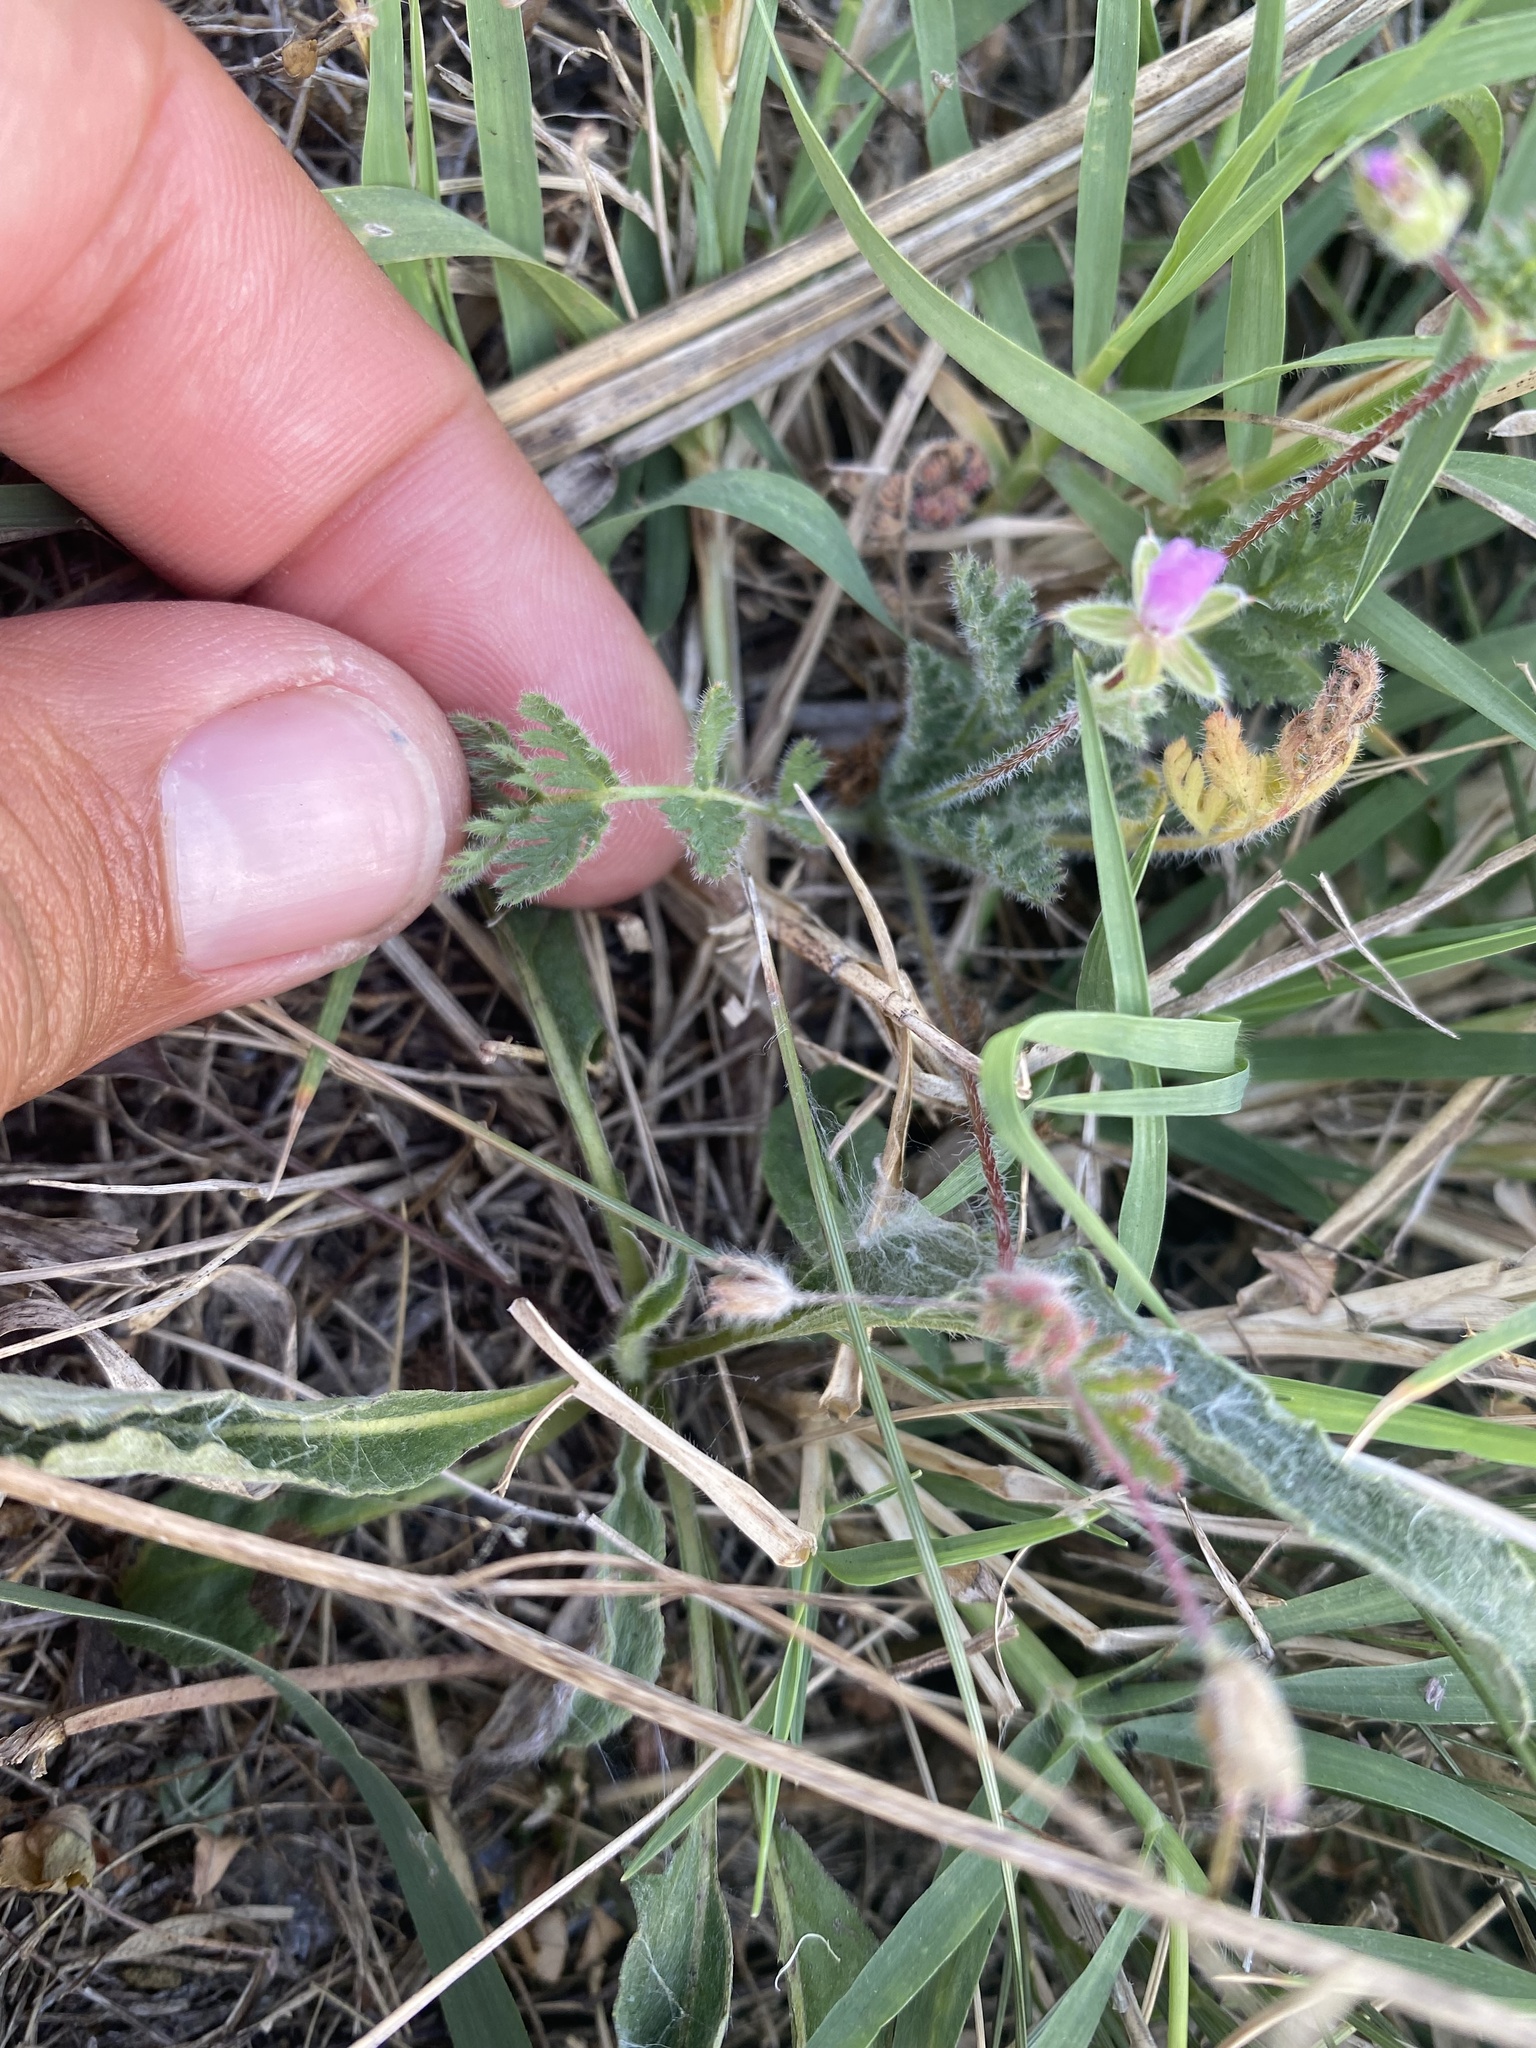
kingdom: Plantae
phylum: Tracheophyta
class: Magnoliopsida
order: Geraniales
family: Geraniaceae
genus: Erodium
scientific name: Erodium cicutarium
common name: Common stork's-bill
